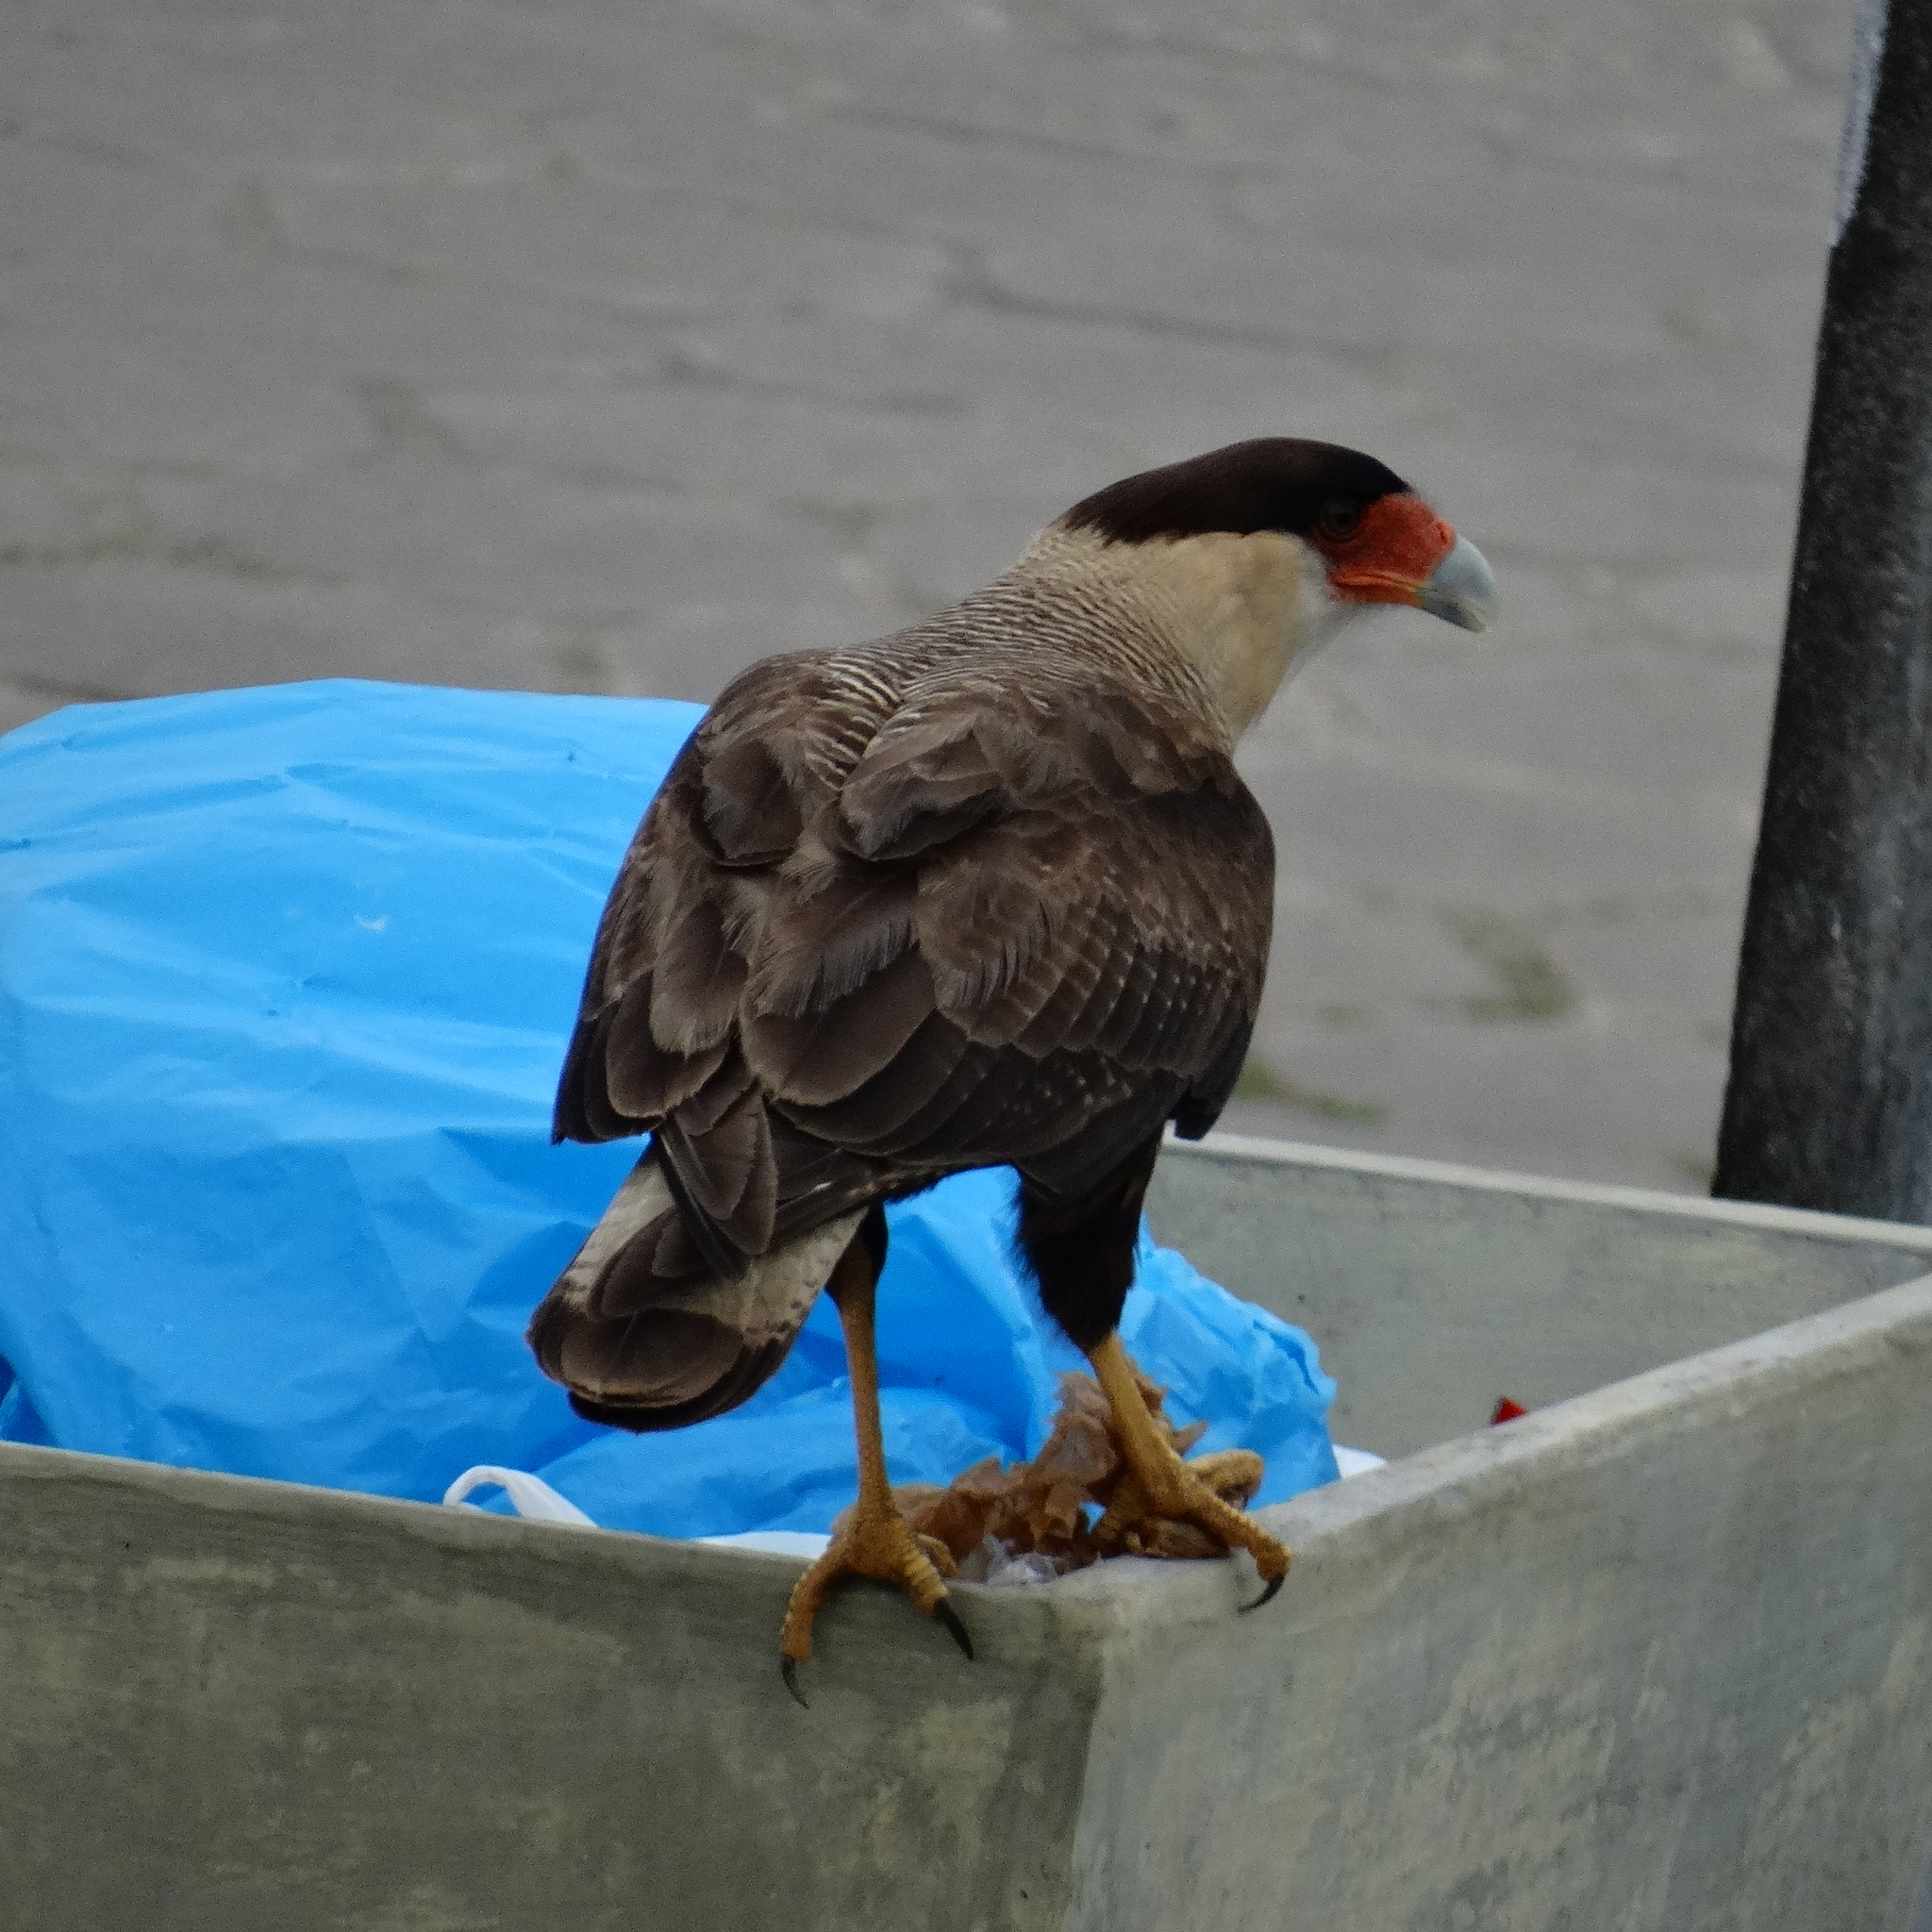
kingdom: Animalia
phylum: Chordata
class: Aves
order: Falconiformes
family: Falconidae
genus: Caracara
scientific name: Caracara plancus
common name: Southern caracara
